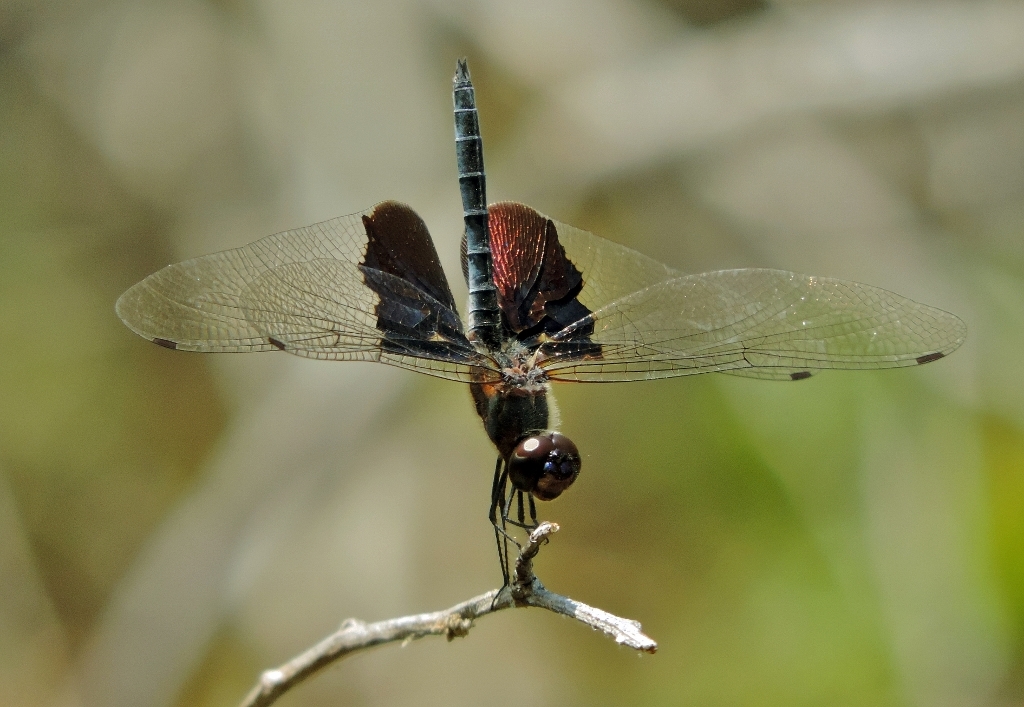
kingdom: Animalia
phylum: Arthropoda
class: Insecta
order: Odonata
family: Libellulidae
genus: Rhyothemis
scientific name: Rhyothemis semihyalina
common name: Phantom flutterer
